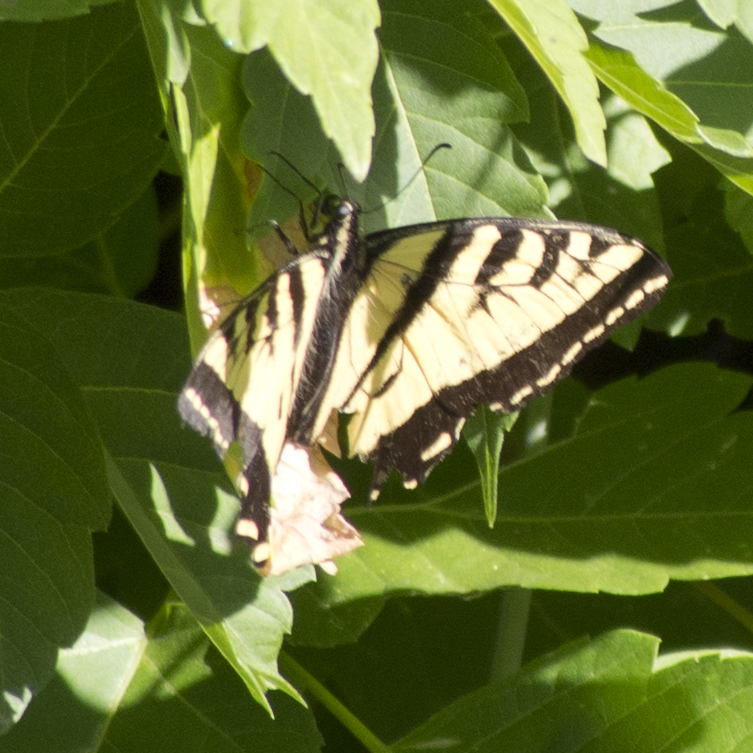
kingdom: Animalia
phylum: Arthropoda
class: Insecta
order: Lepidoptera
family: Papilionidae
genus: Papilio
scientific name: Papilio rutulus
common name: Western tiger swallowtail
